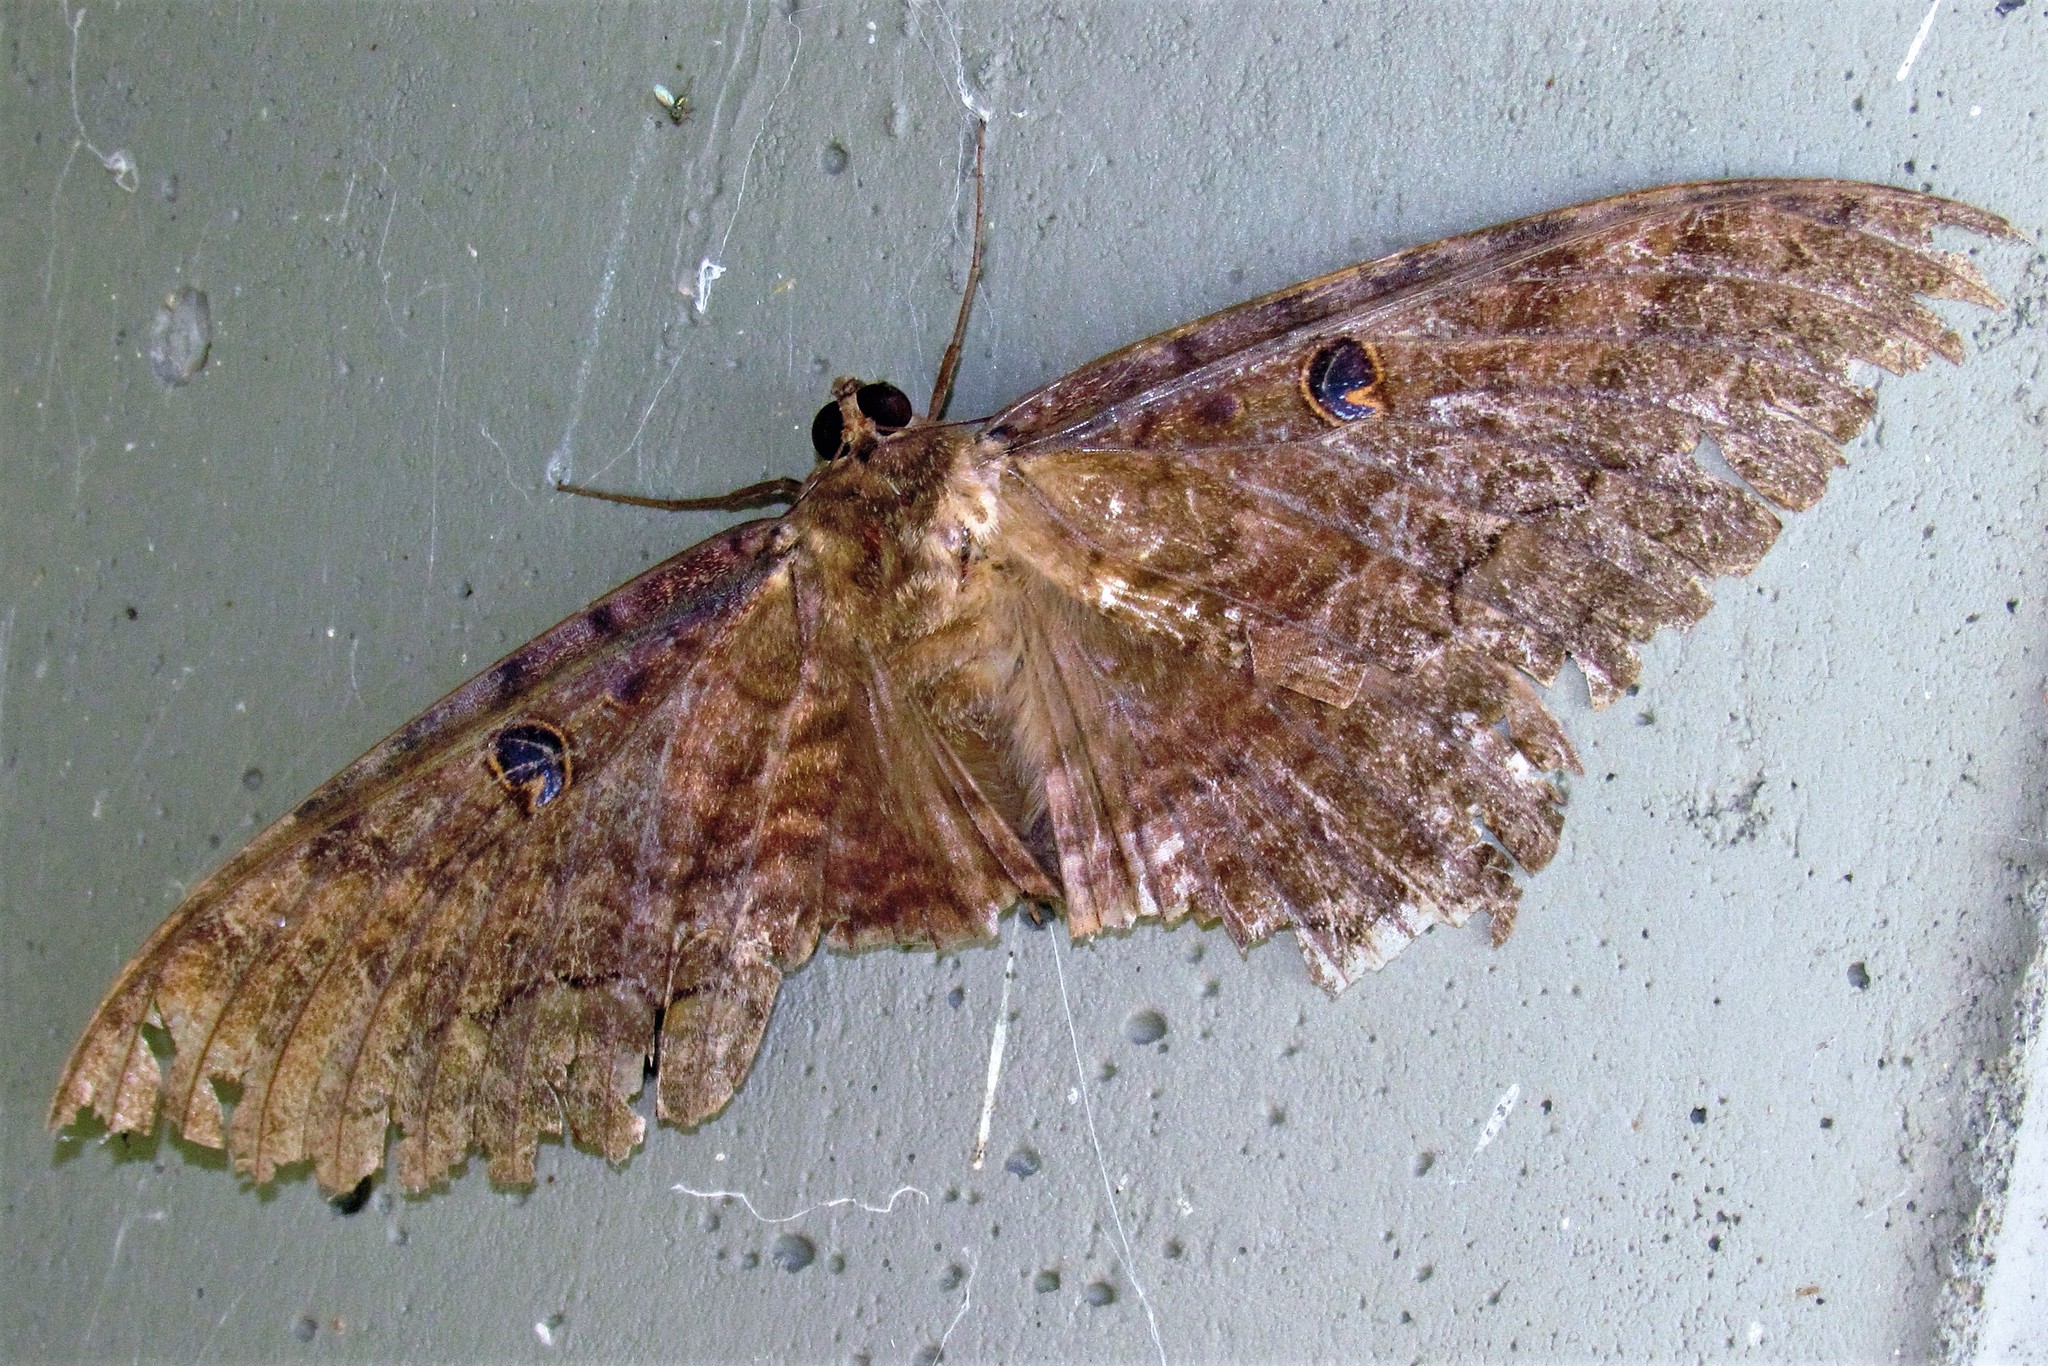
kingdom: Animalia
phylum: Arthropoda
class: Insecta
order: Lepidoptera
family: Erebidae
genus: Ascalapha
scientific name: Ascalapha odorata
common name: Black witch
